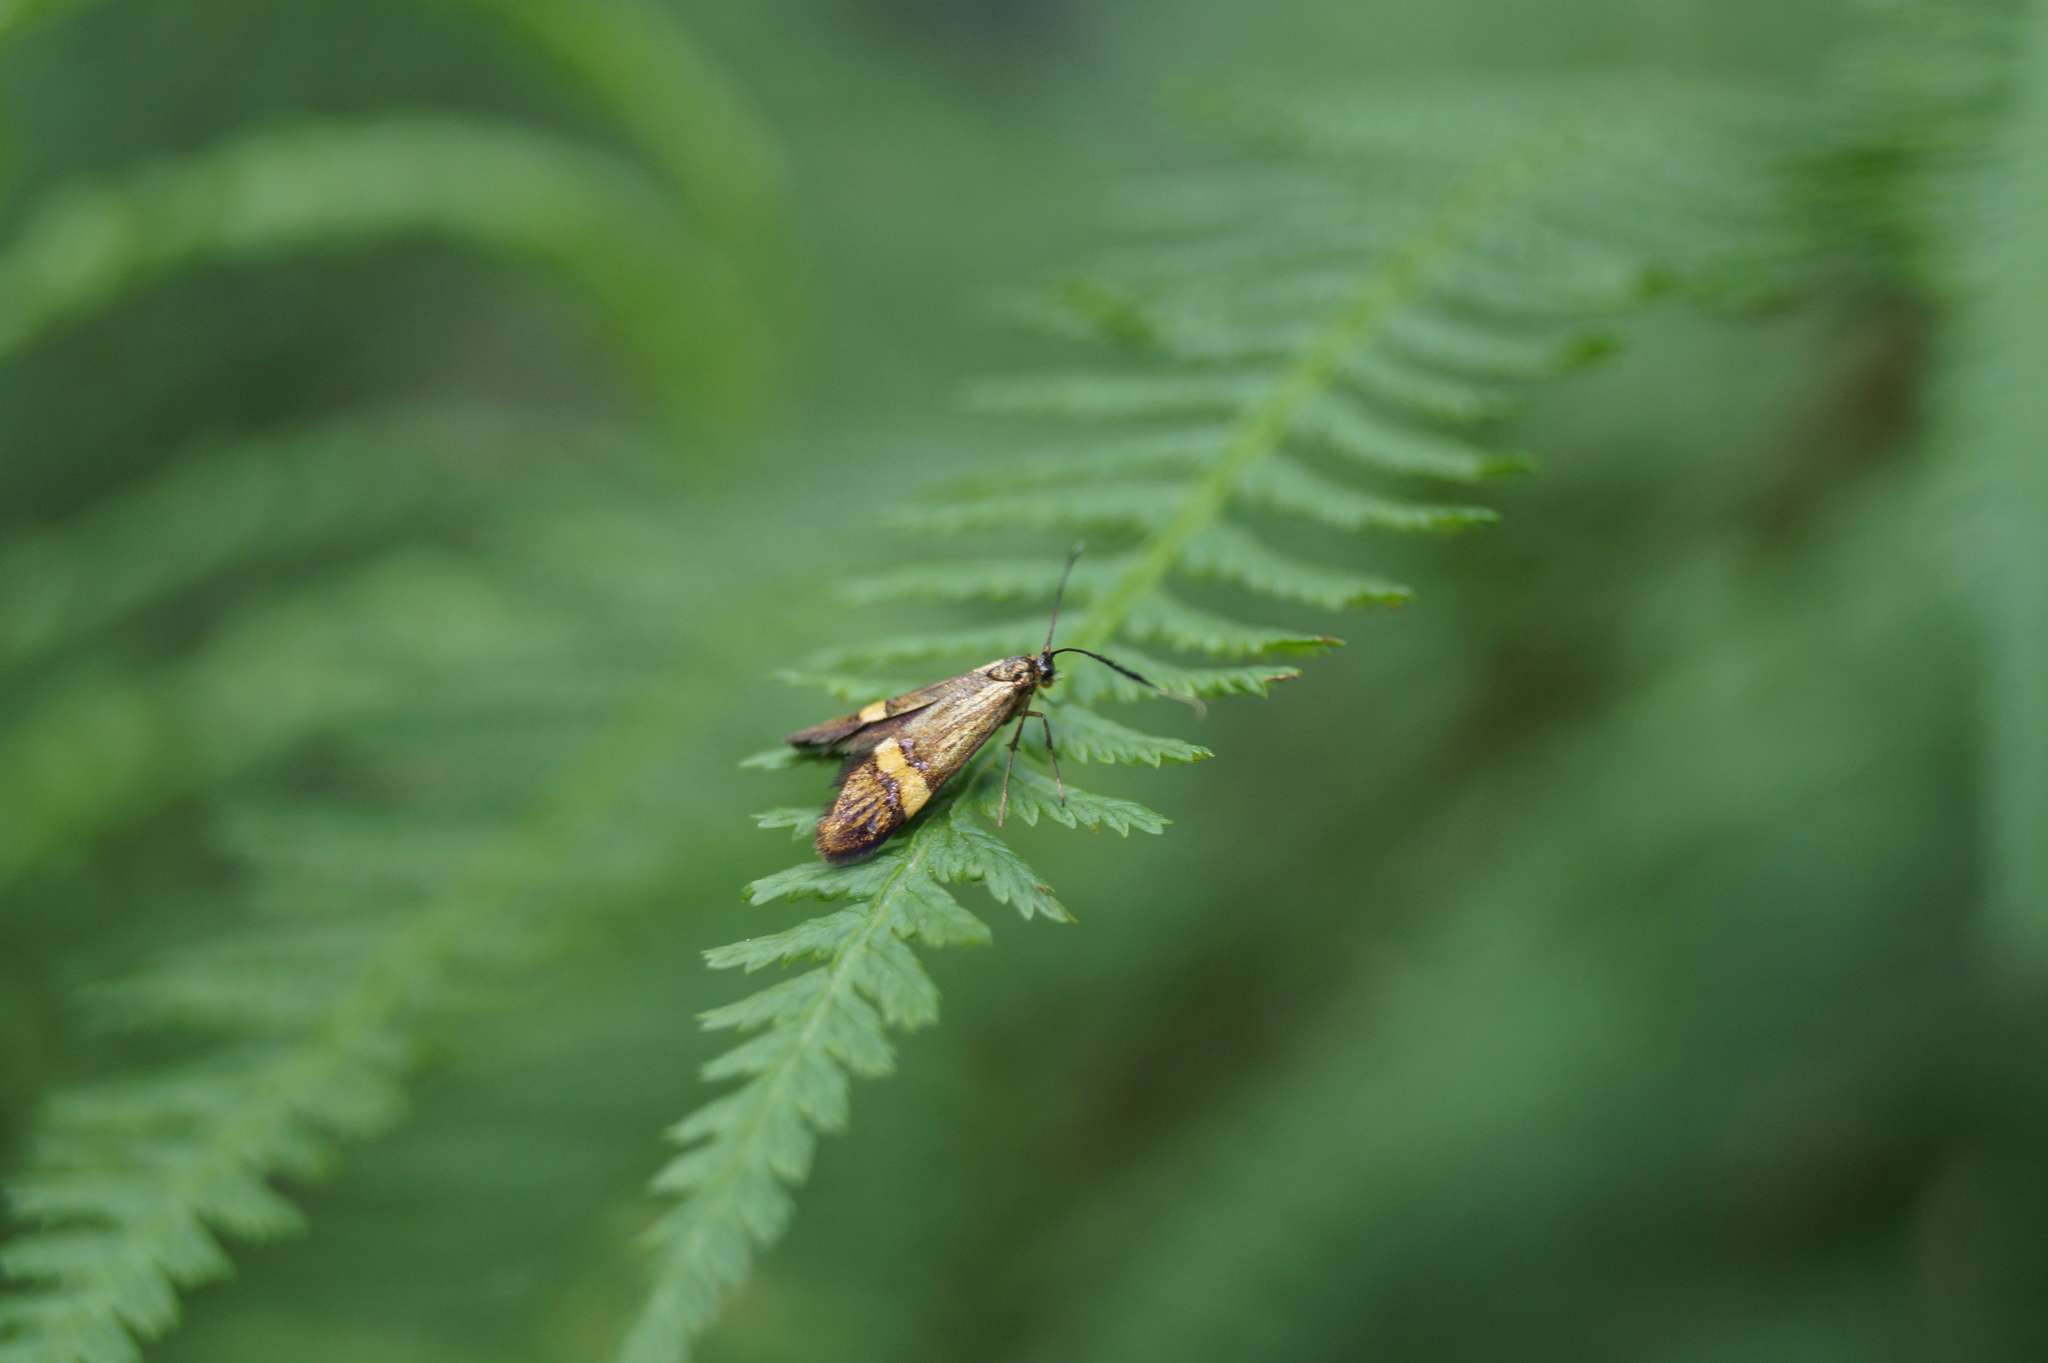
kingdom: Animalia
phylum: Arthropoda
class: Insecta
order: Lepidoptera
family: Adelidae
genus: Nemophora
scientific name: Nemophora degeerella
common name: Yellow-barred long-horn
